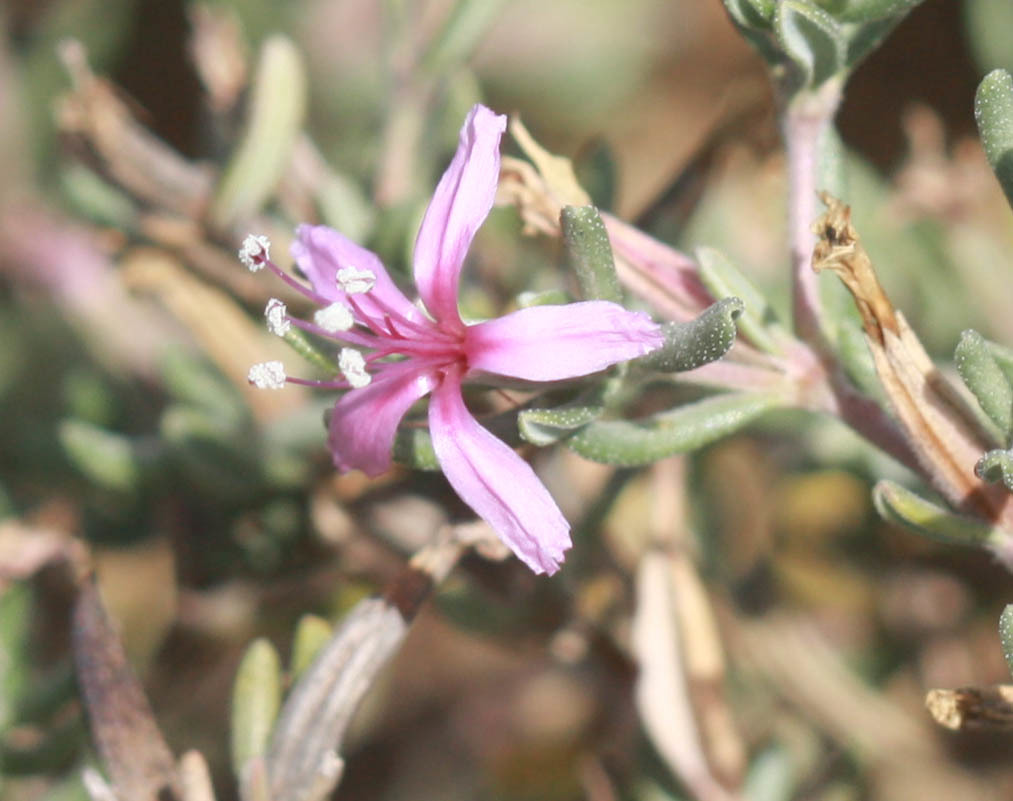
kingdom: Plantae
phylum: Tracheophyta
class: Magnoliopsida
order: Caryophyllales
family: Frankeniaceae
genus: Frankenia
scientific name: Frankenia salina
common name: Alkali seaheath
